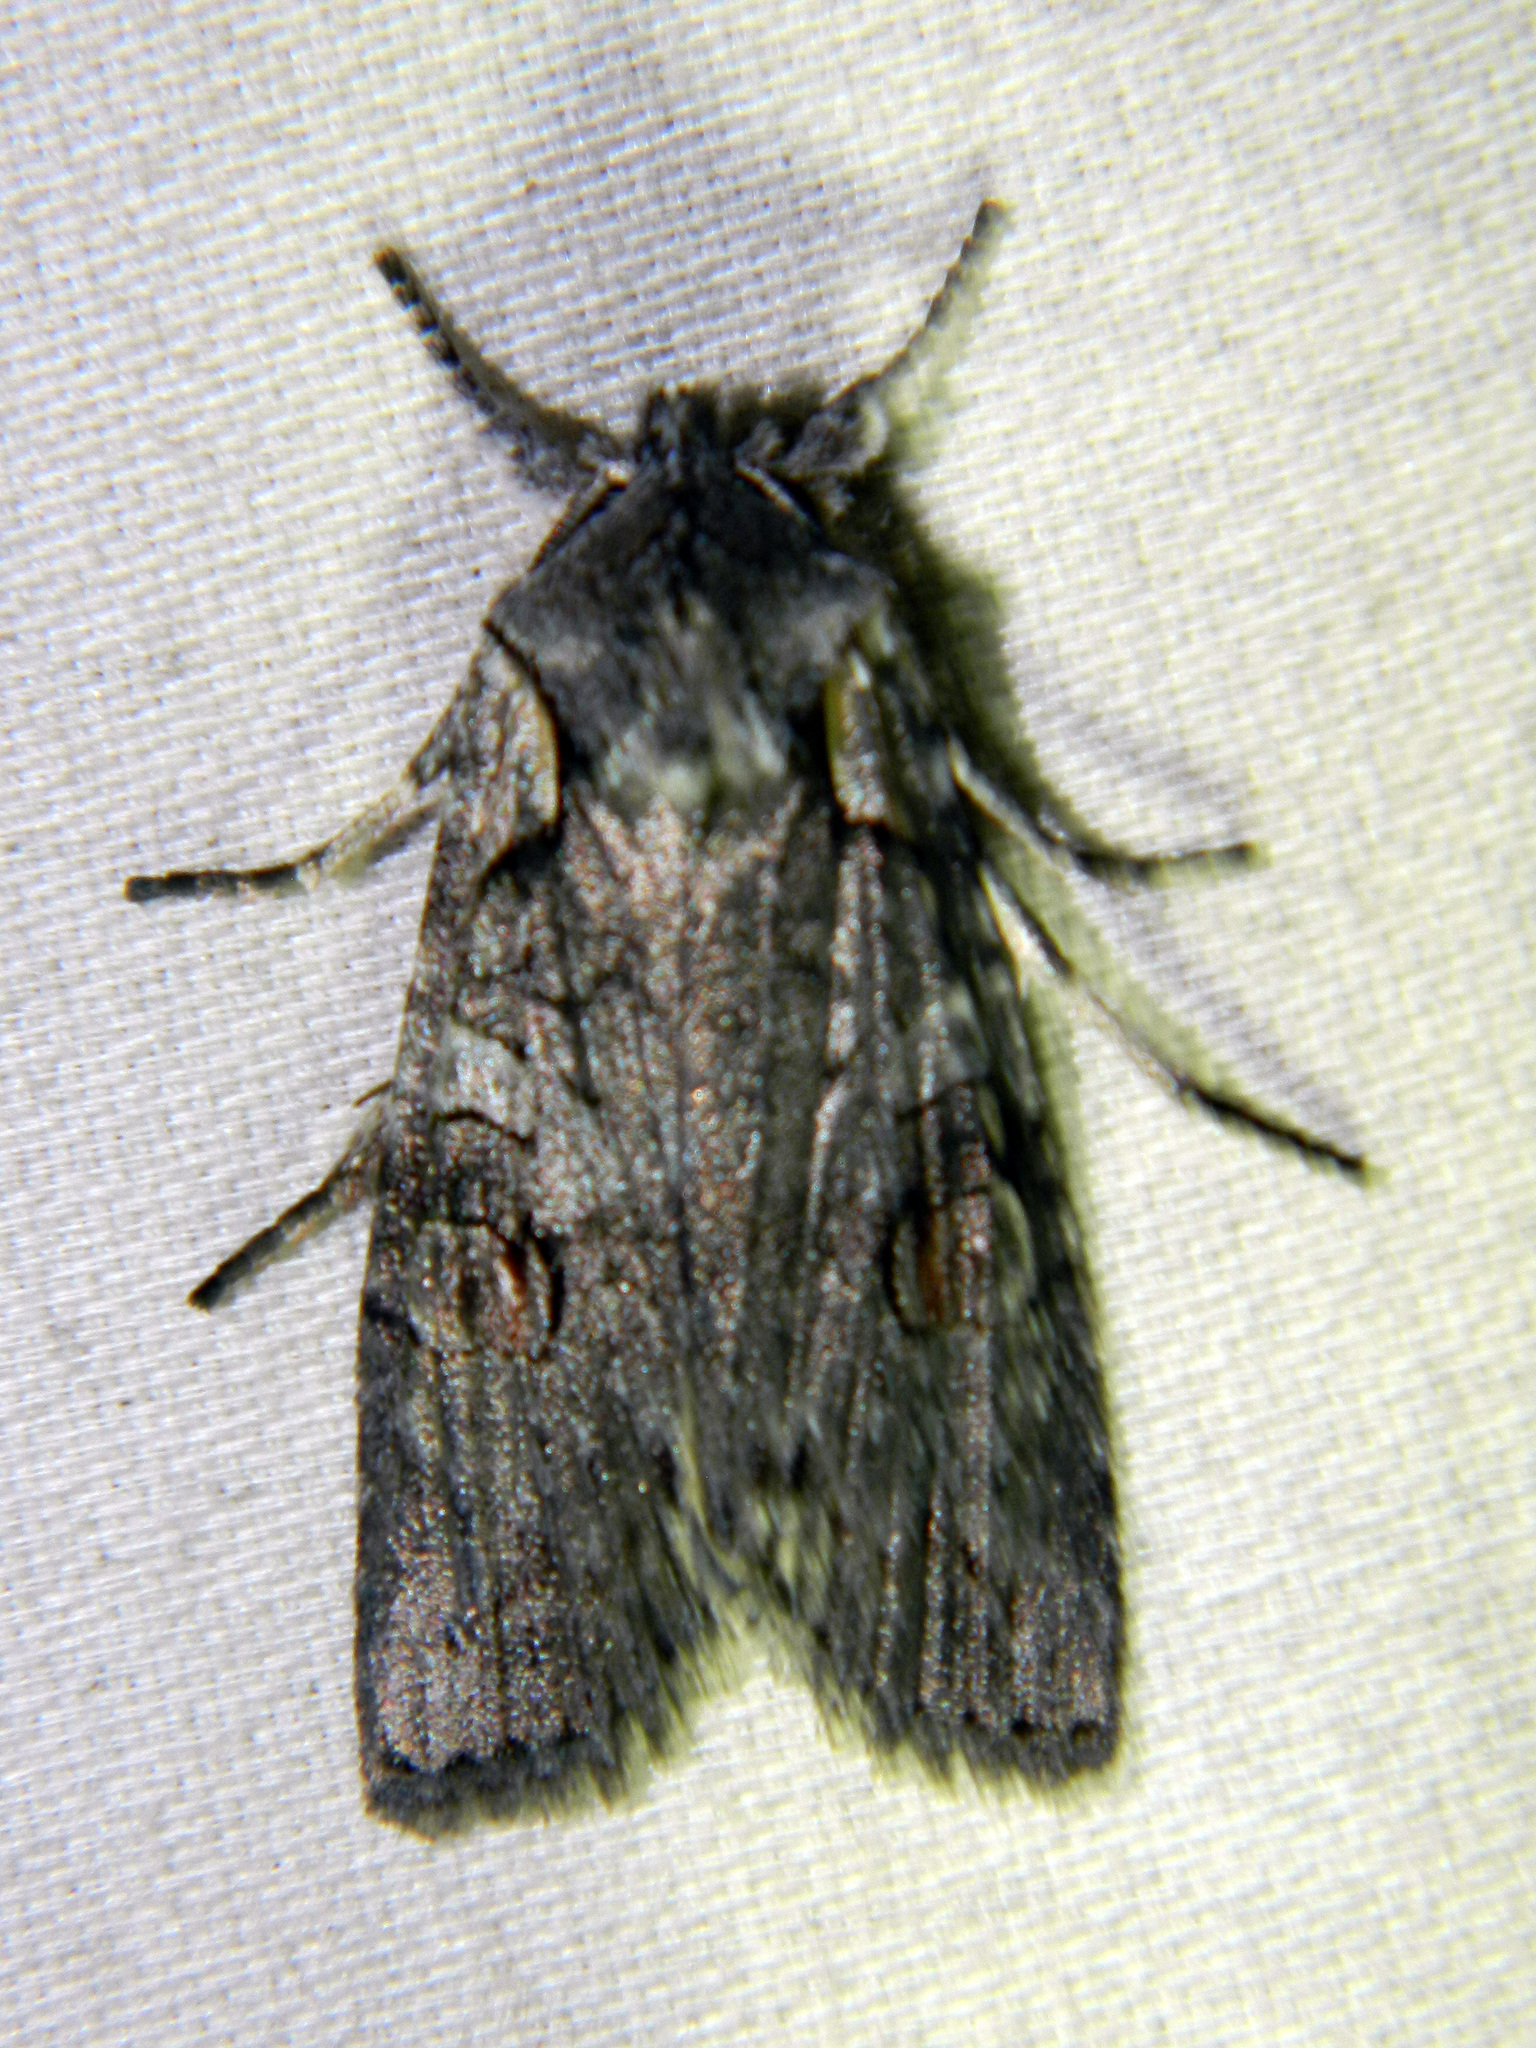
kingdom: Animalia
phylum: Arthropoda
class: Insecta
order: Lepidoptera
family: Noctuidae
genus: Lithophane
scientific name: Lithophane baileyi
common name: Bailey's pinion moth
